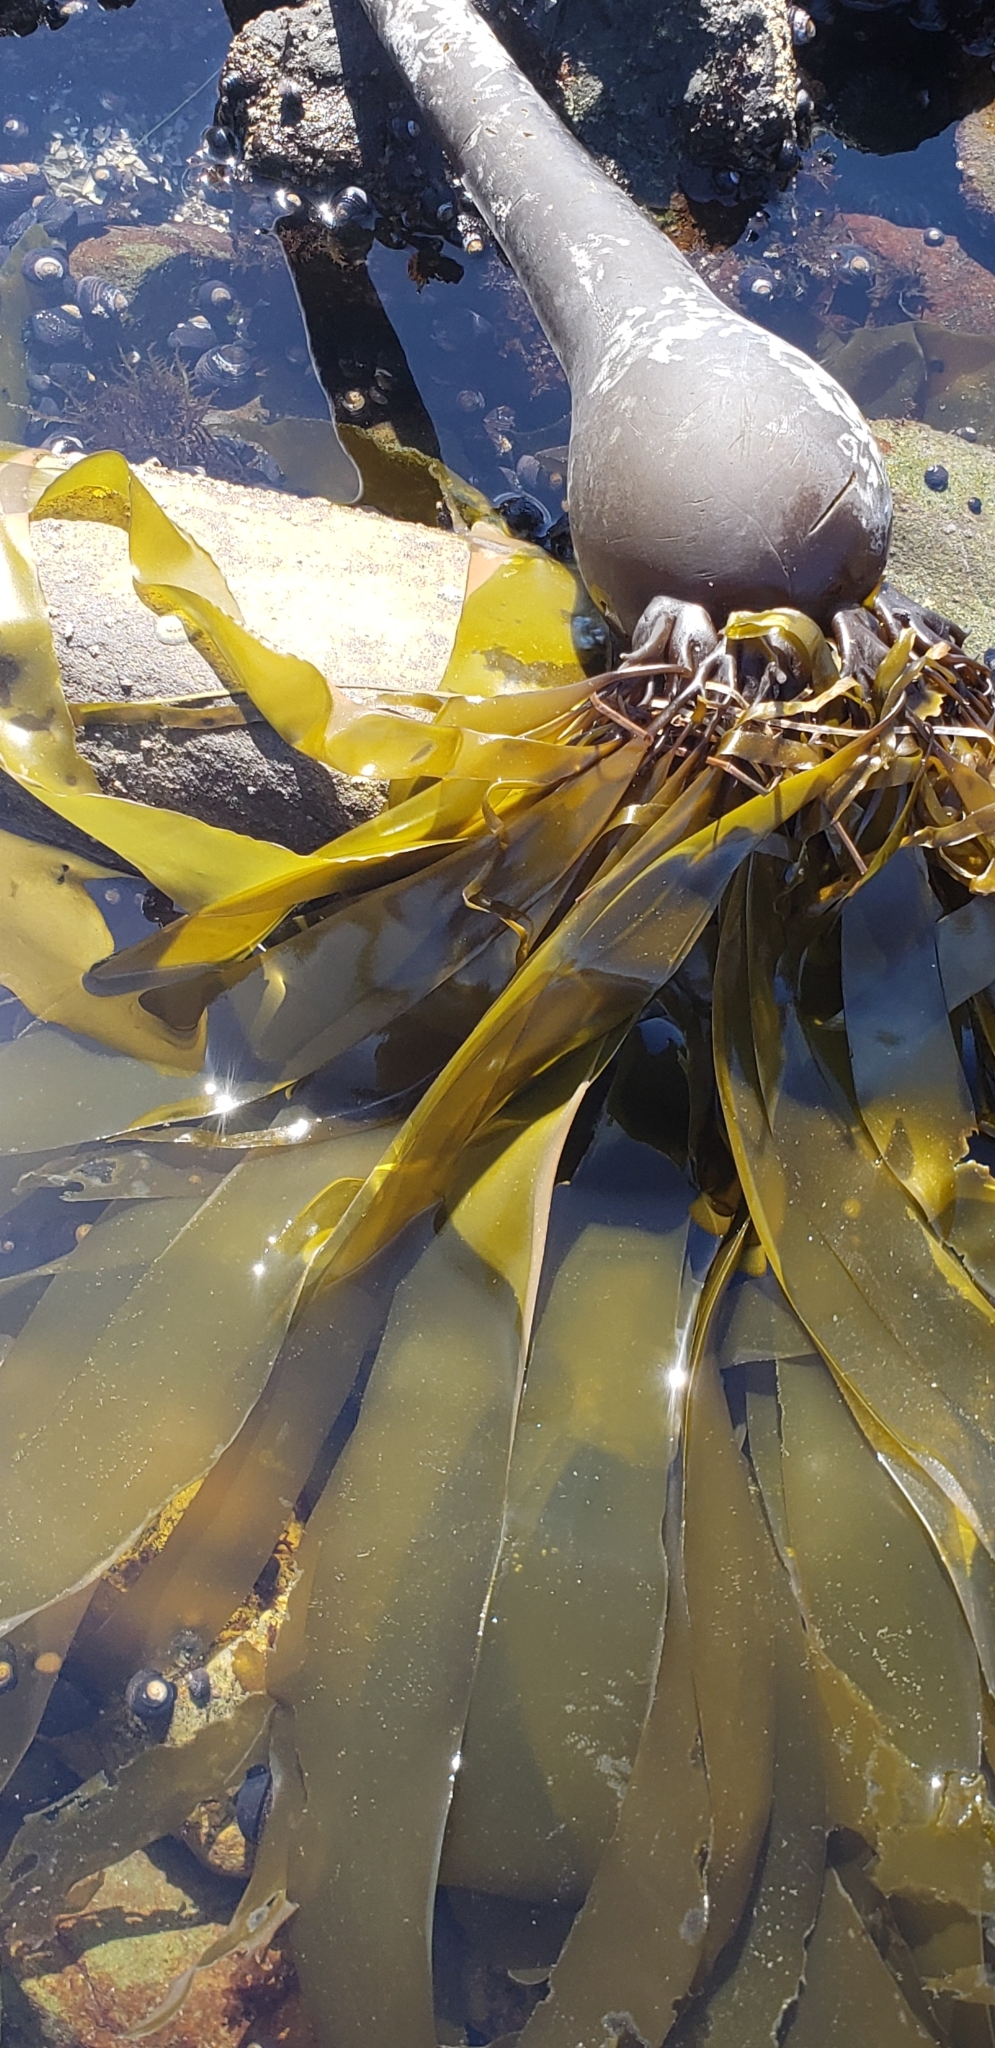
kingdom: Chromista
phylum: Ochrophyta
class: Phaeophyceae
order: Laminariales
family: Laminariaceae
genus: Nereocystis
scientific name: Nereocystis luetkeana
